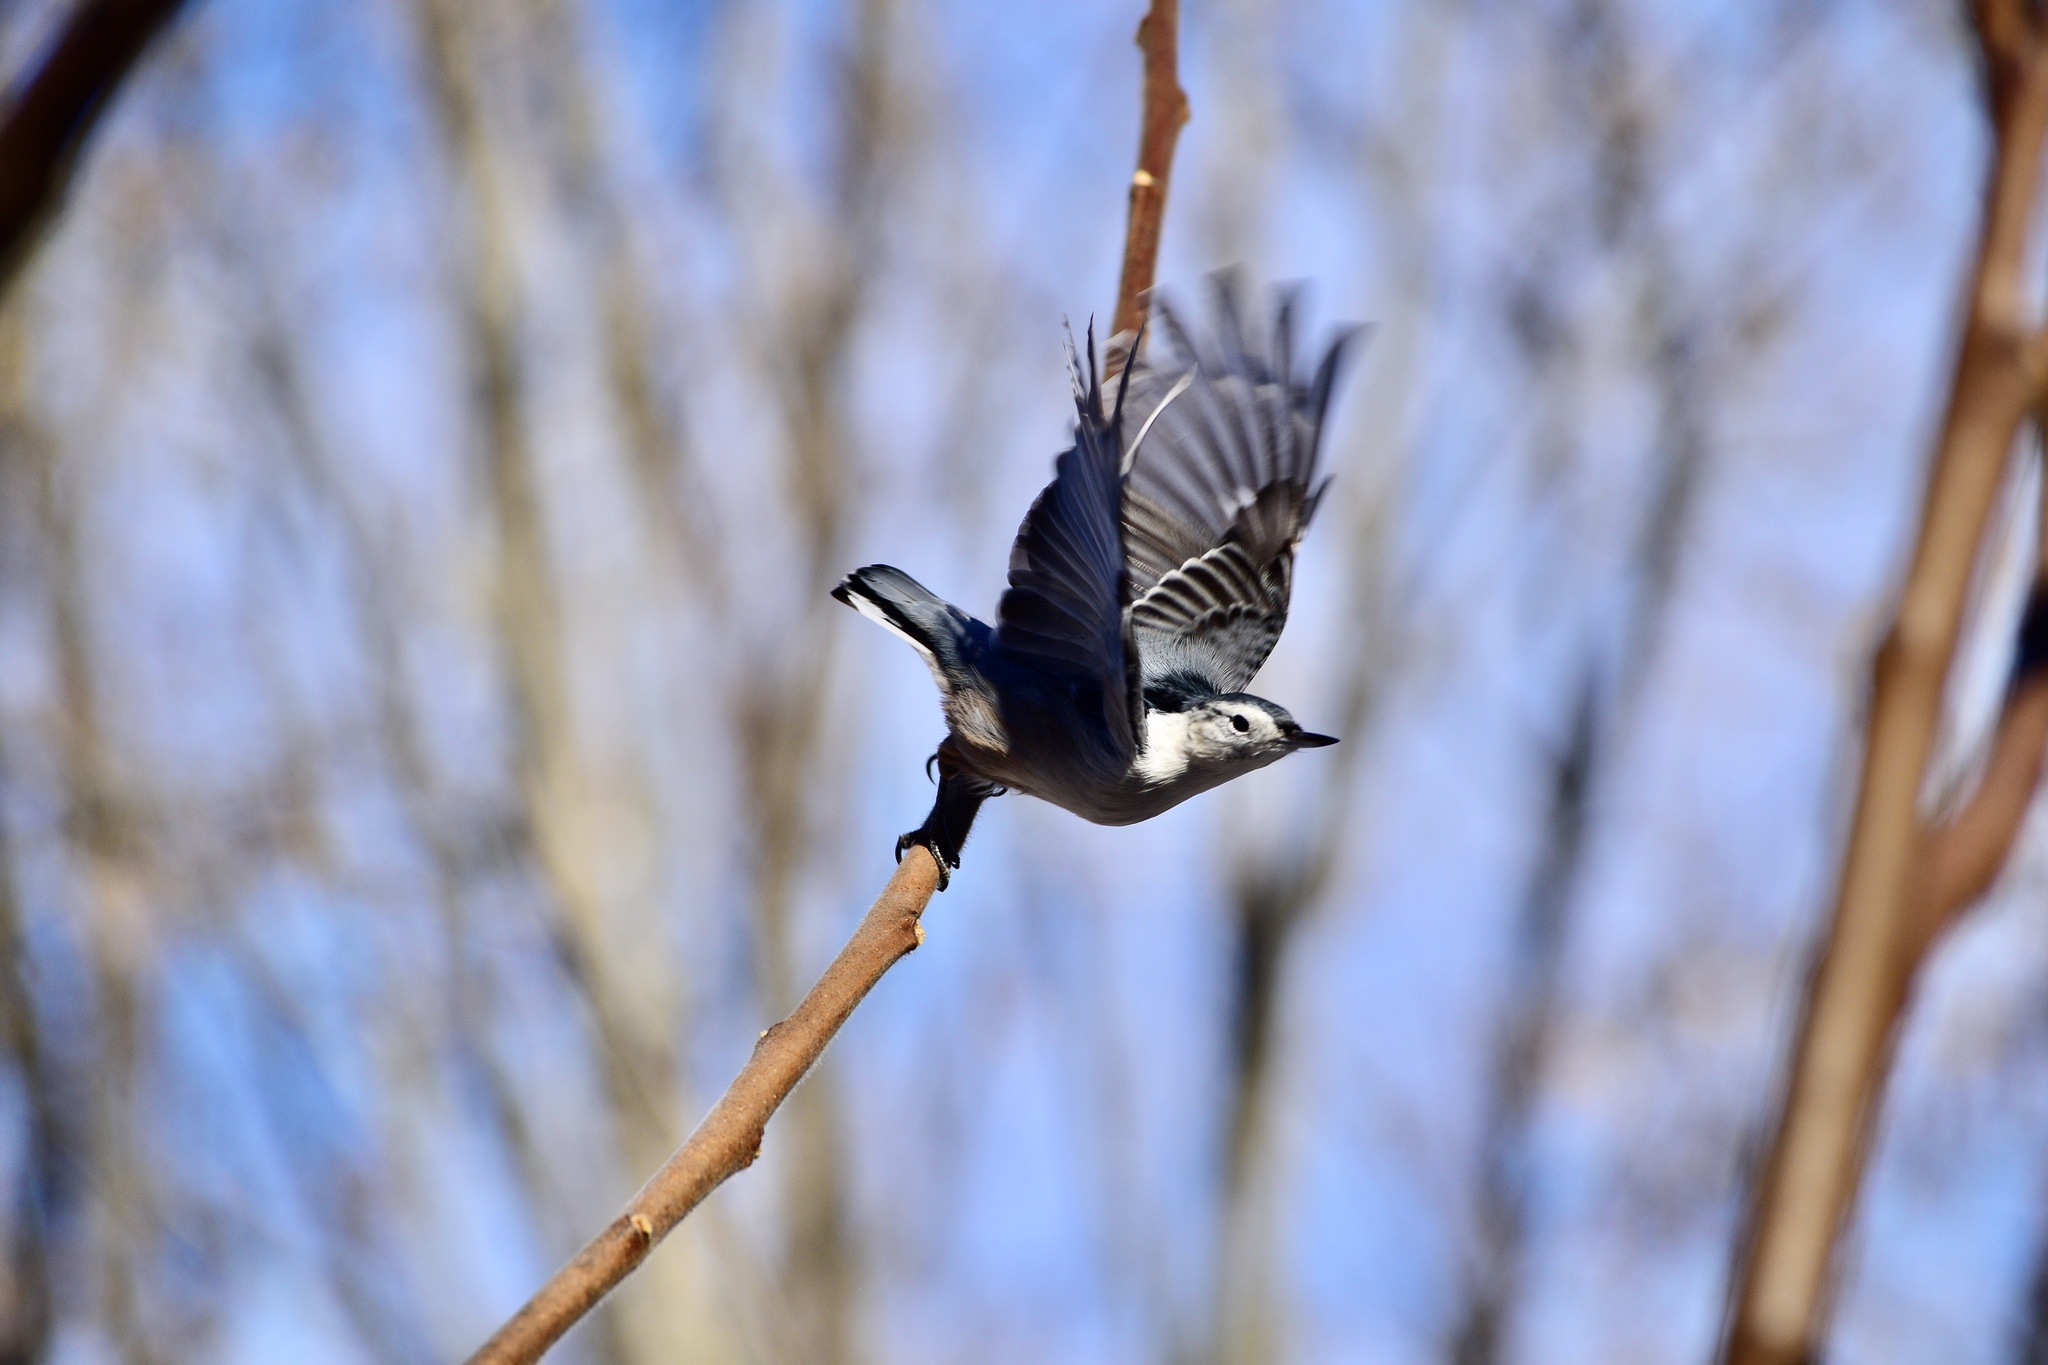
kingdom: Animalia
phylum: Chordata
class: Aves
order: Passeriformes
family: Sittidae
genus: Sitta
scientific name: Sitta carolinensis
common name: White-breasted nuthatch
